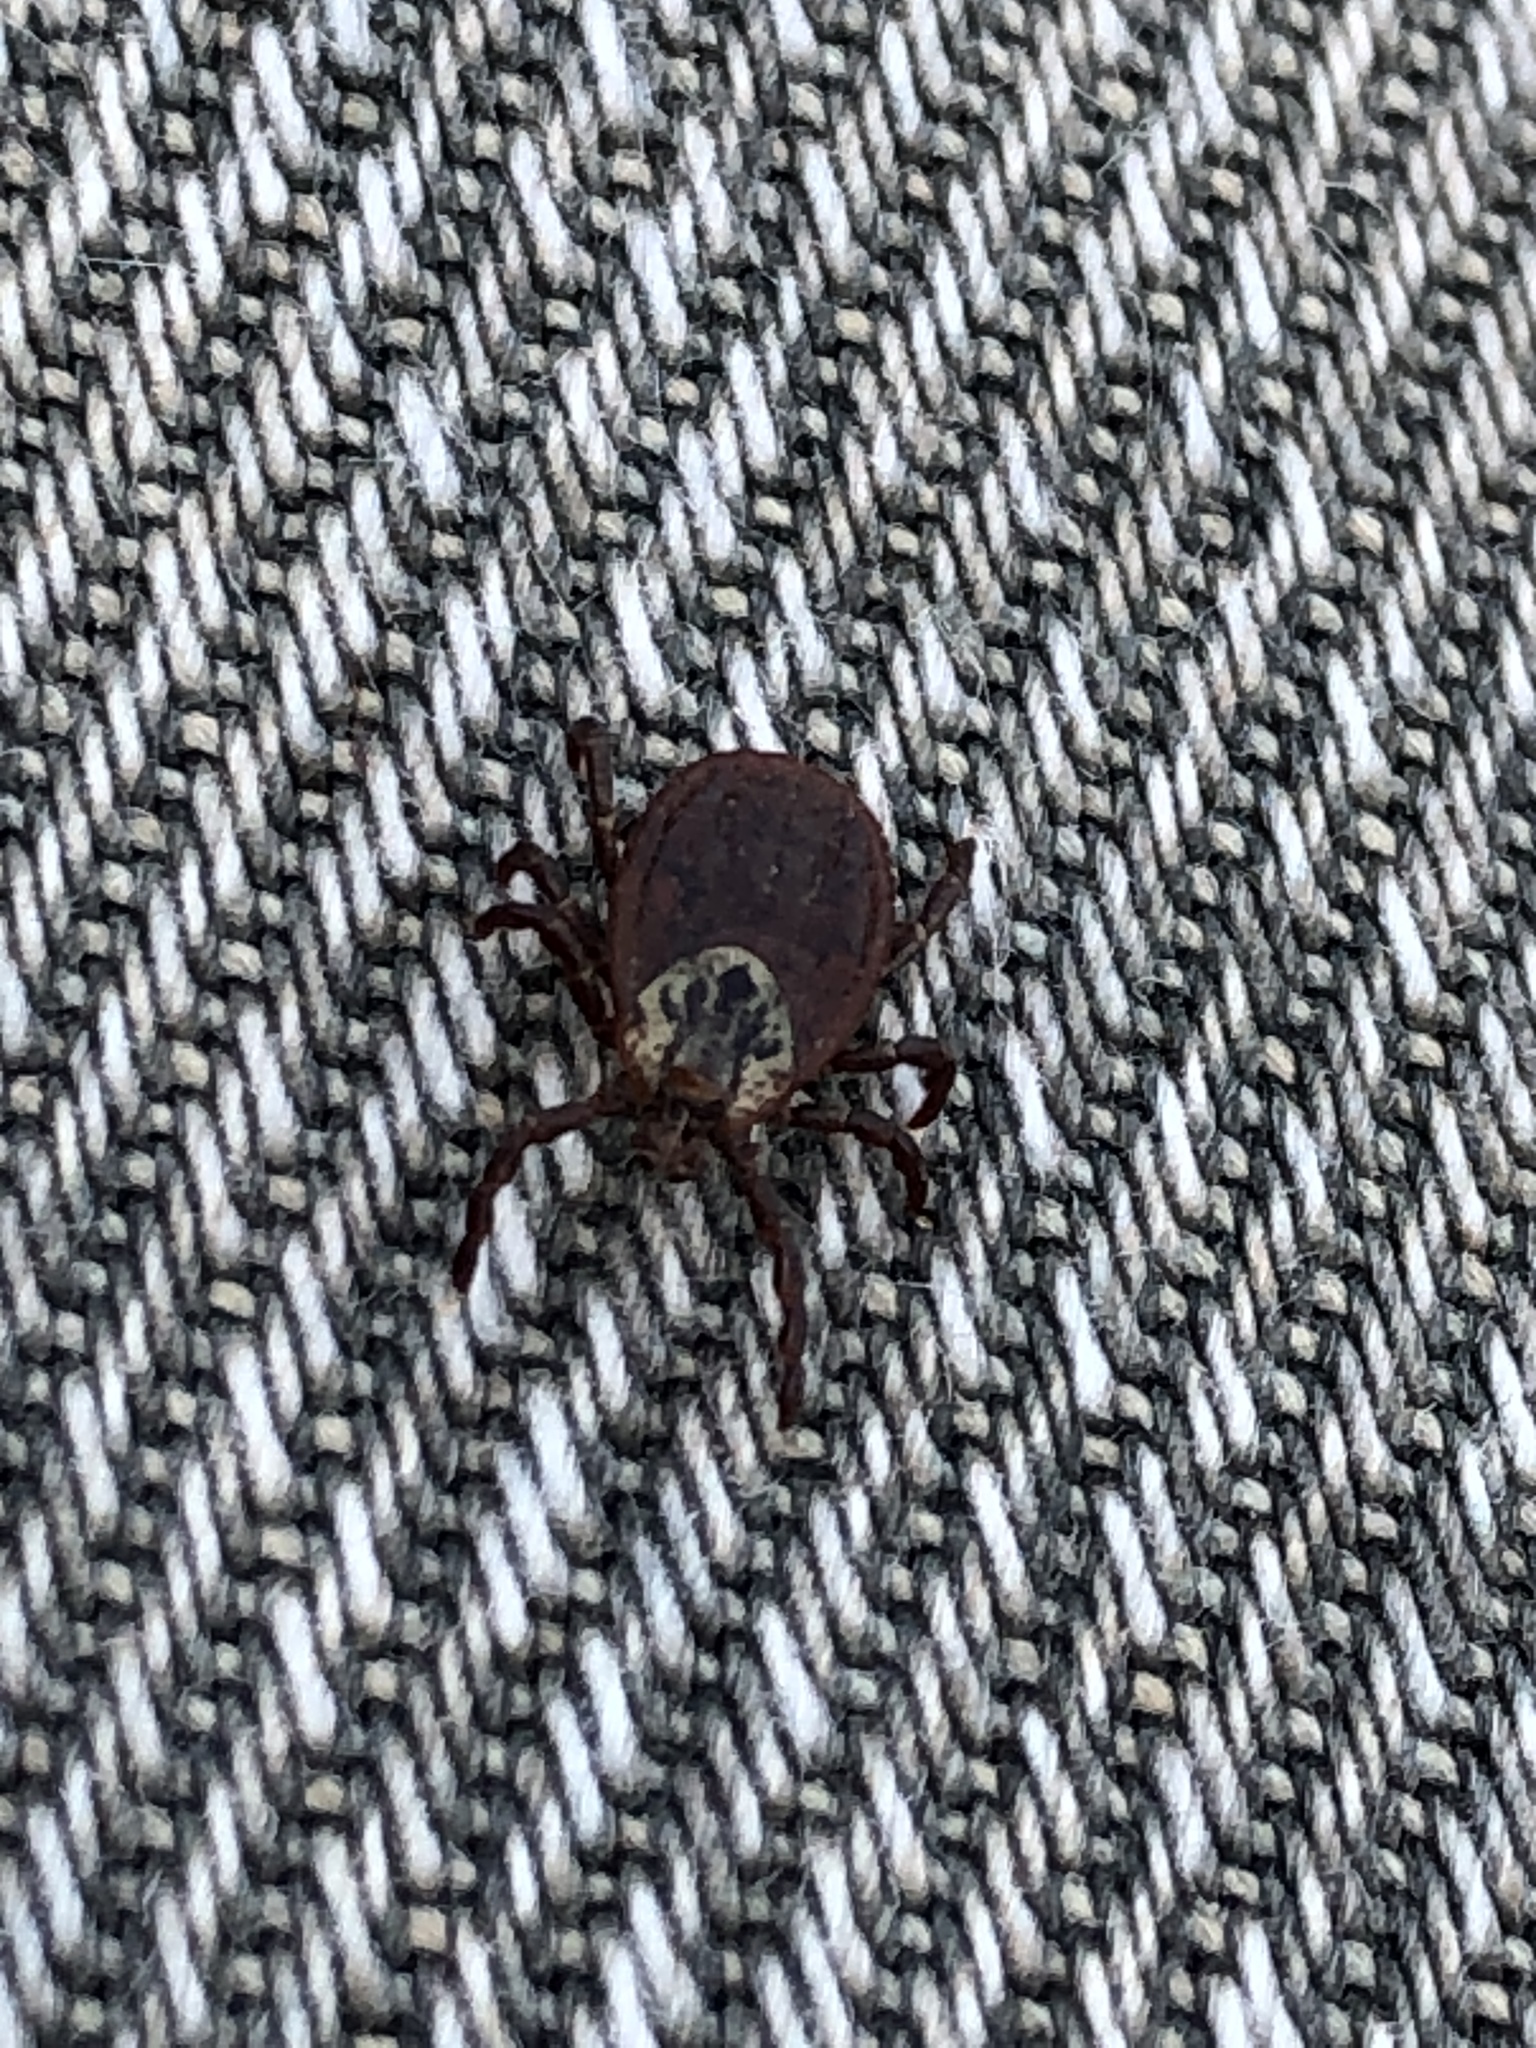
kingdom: Animalia
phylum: Arthropoda
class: Arachnida
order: Ixodida
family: Ixodidae
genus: Dermacentor
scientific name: Dermacentor
